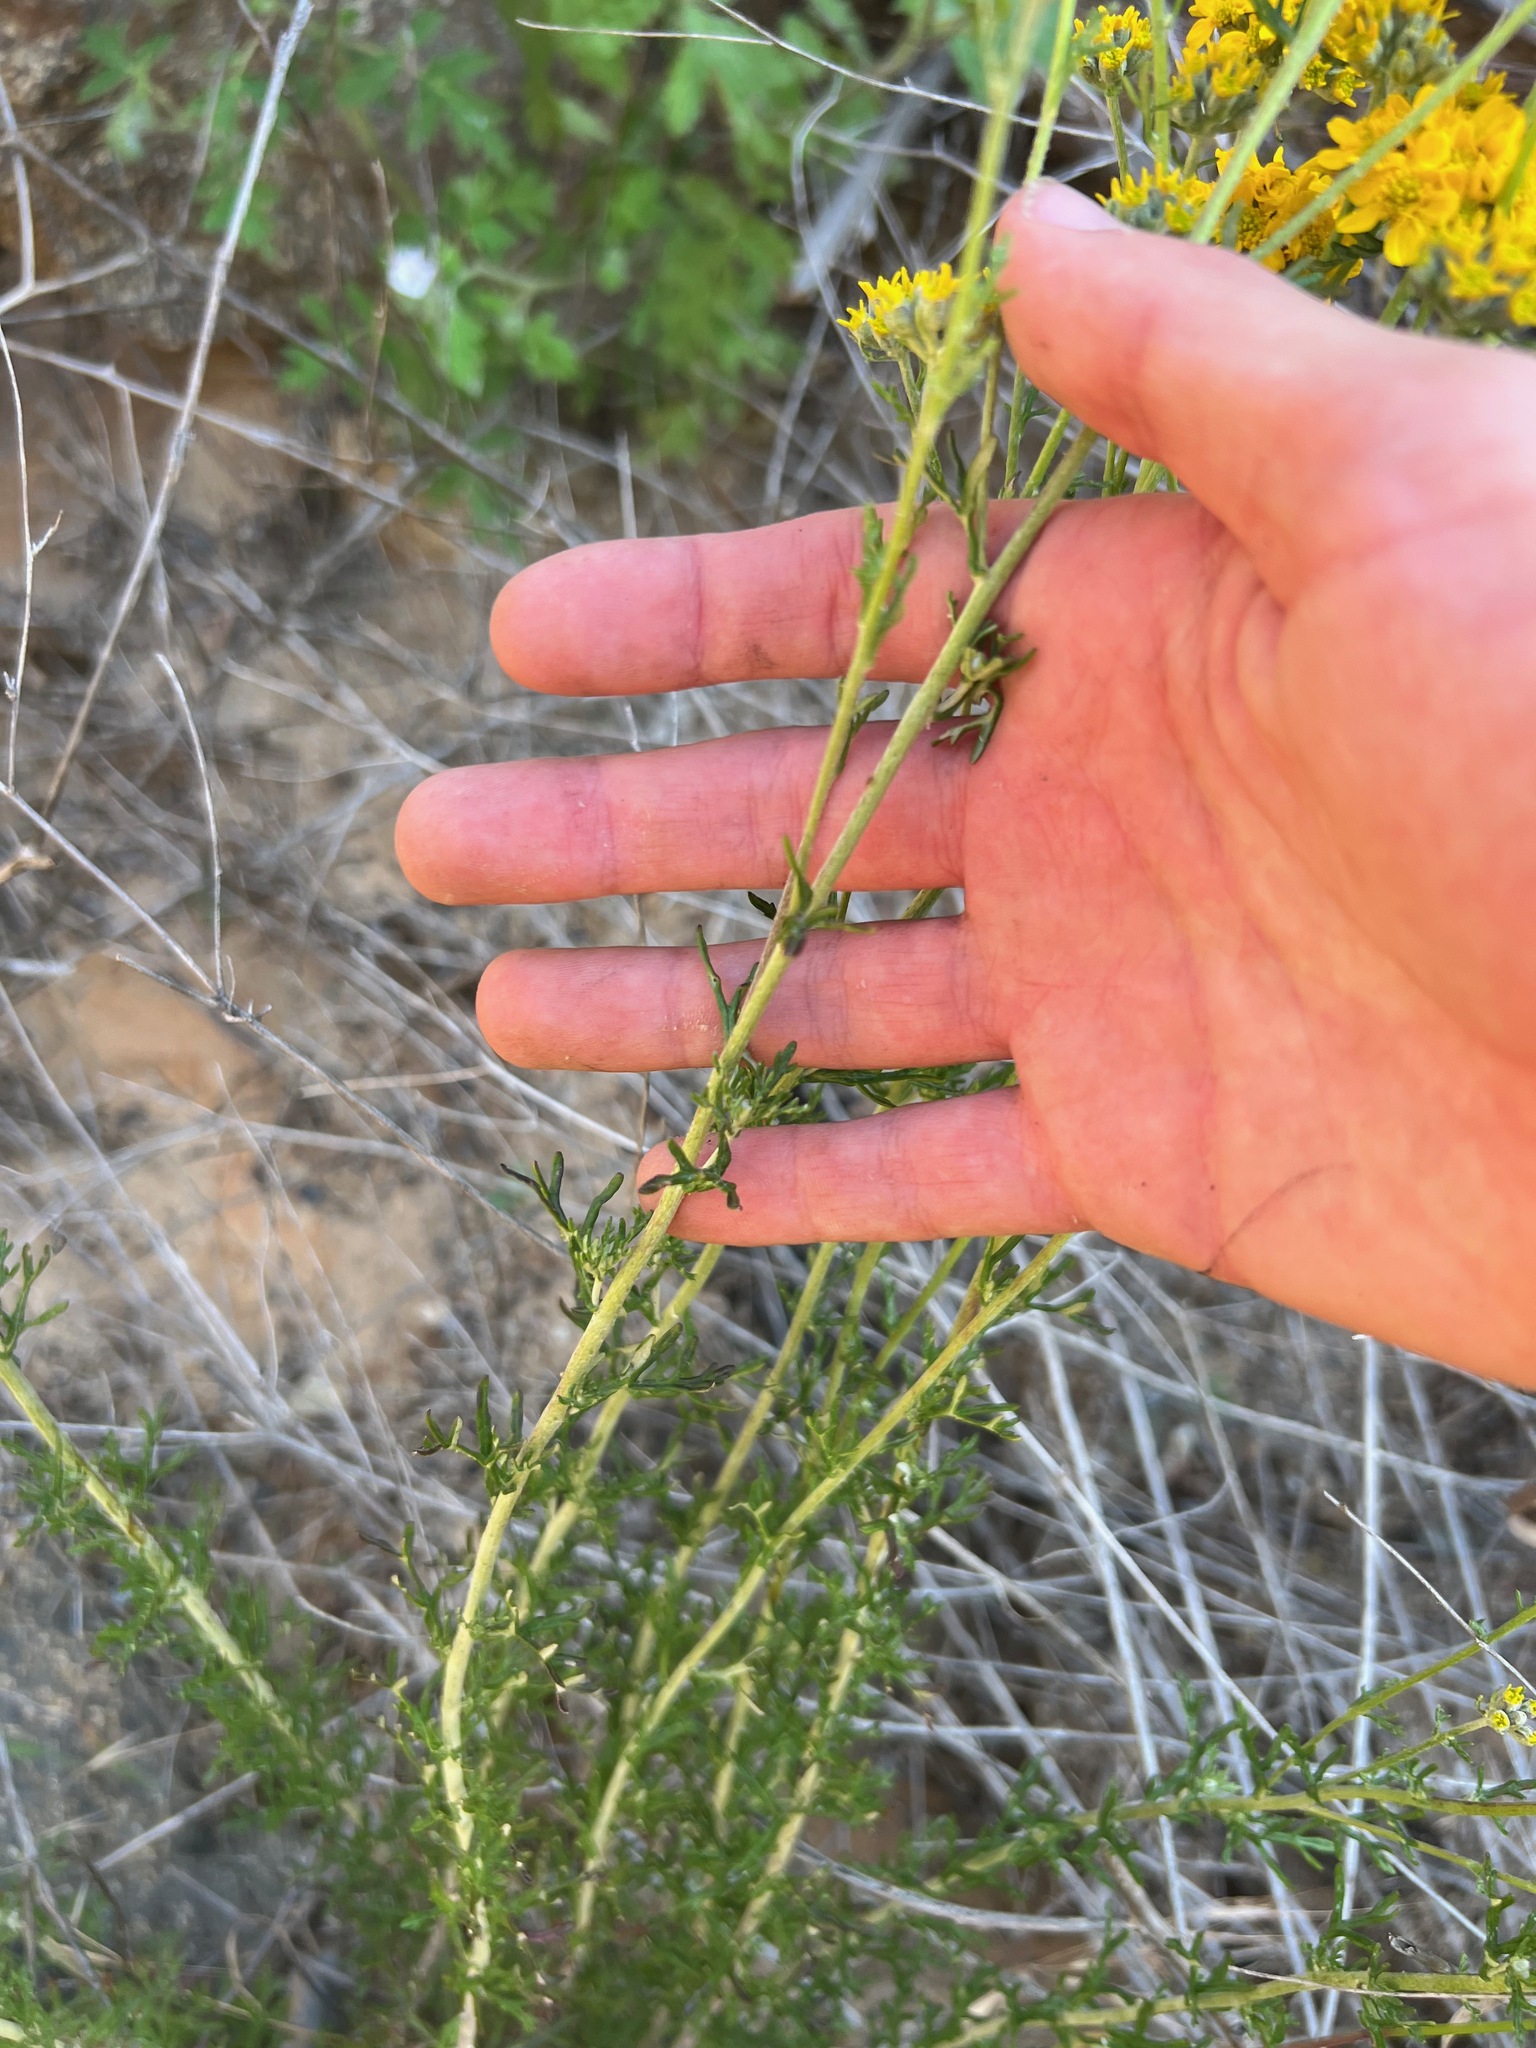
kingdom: Plantae
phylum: Tracheophyta
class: Magnoliopsida
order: Asterales
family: Asteraceae
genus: Eriophyllum
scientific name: Eriophyllum confertiflorum
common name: Golden-yarrow
